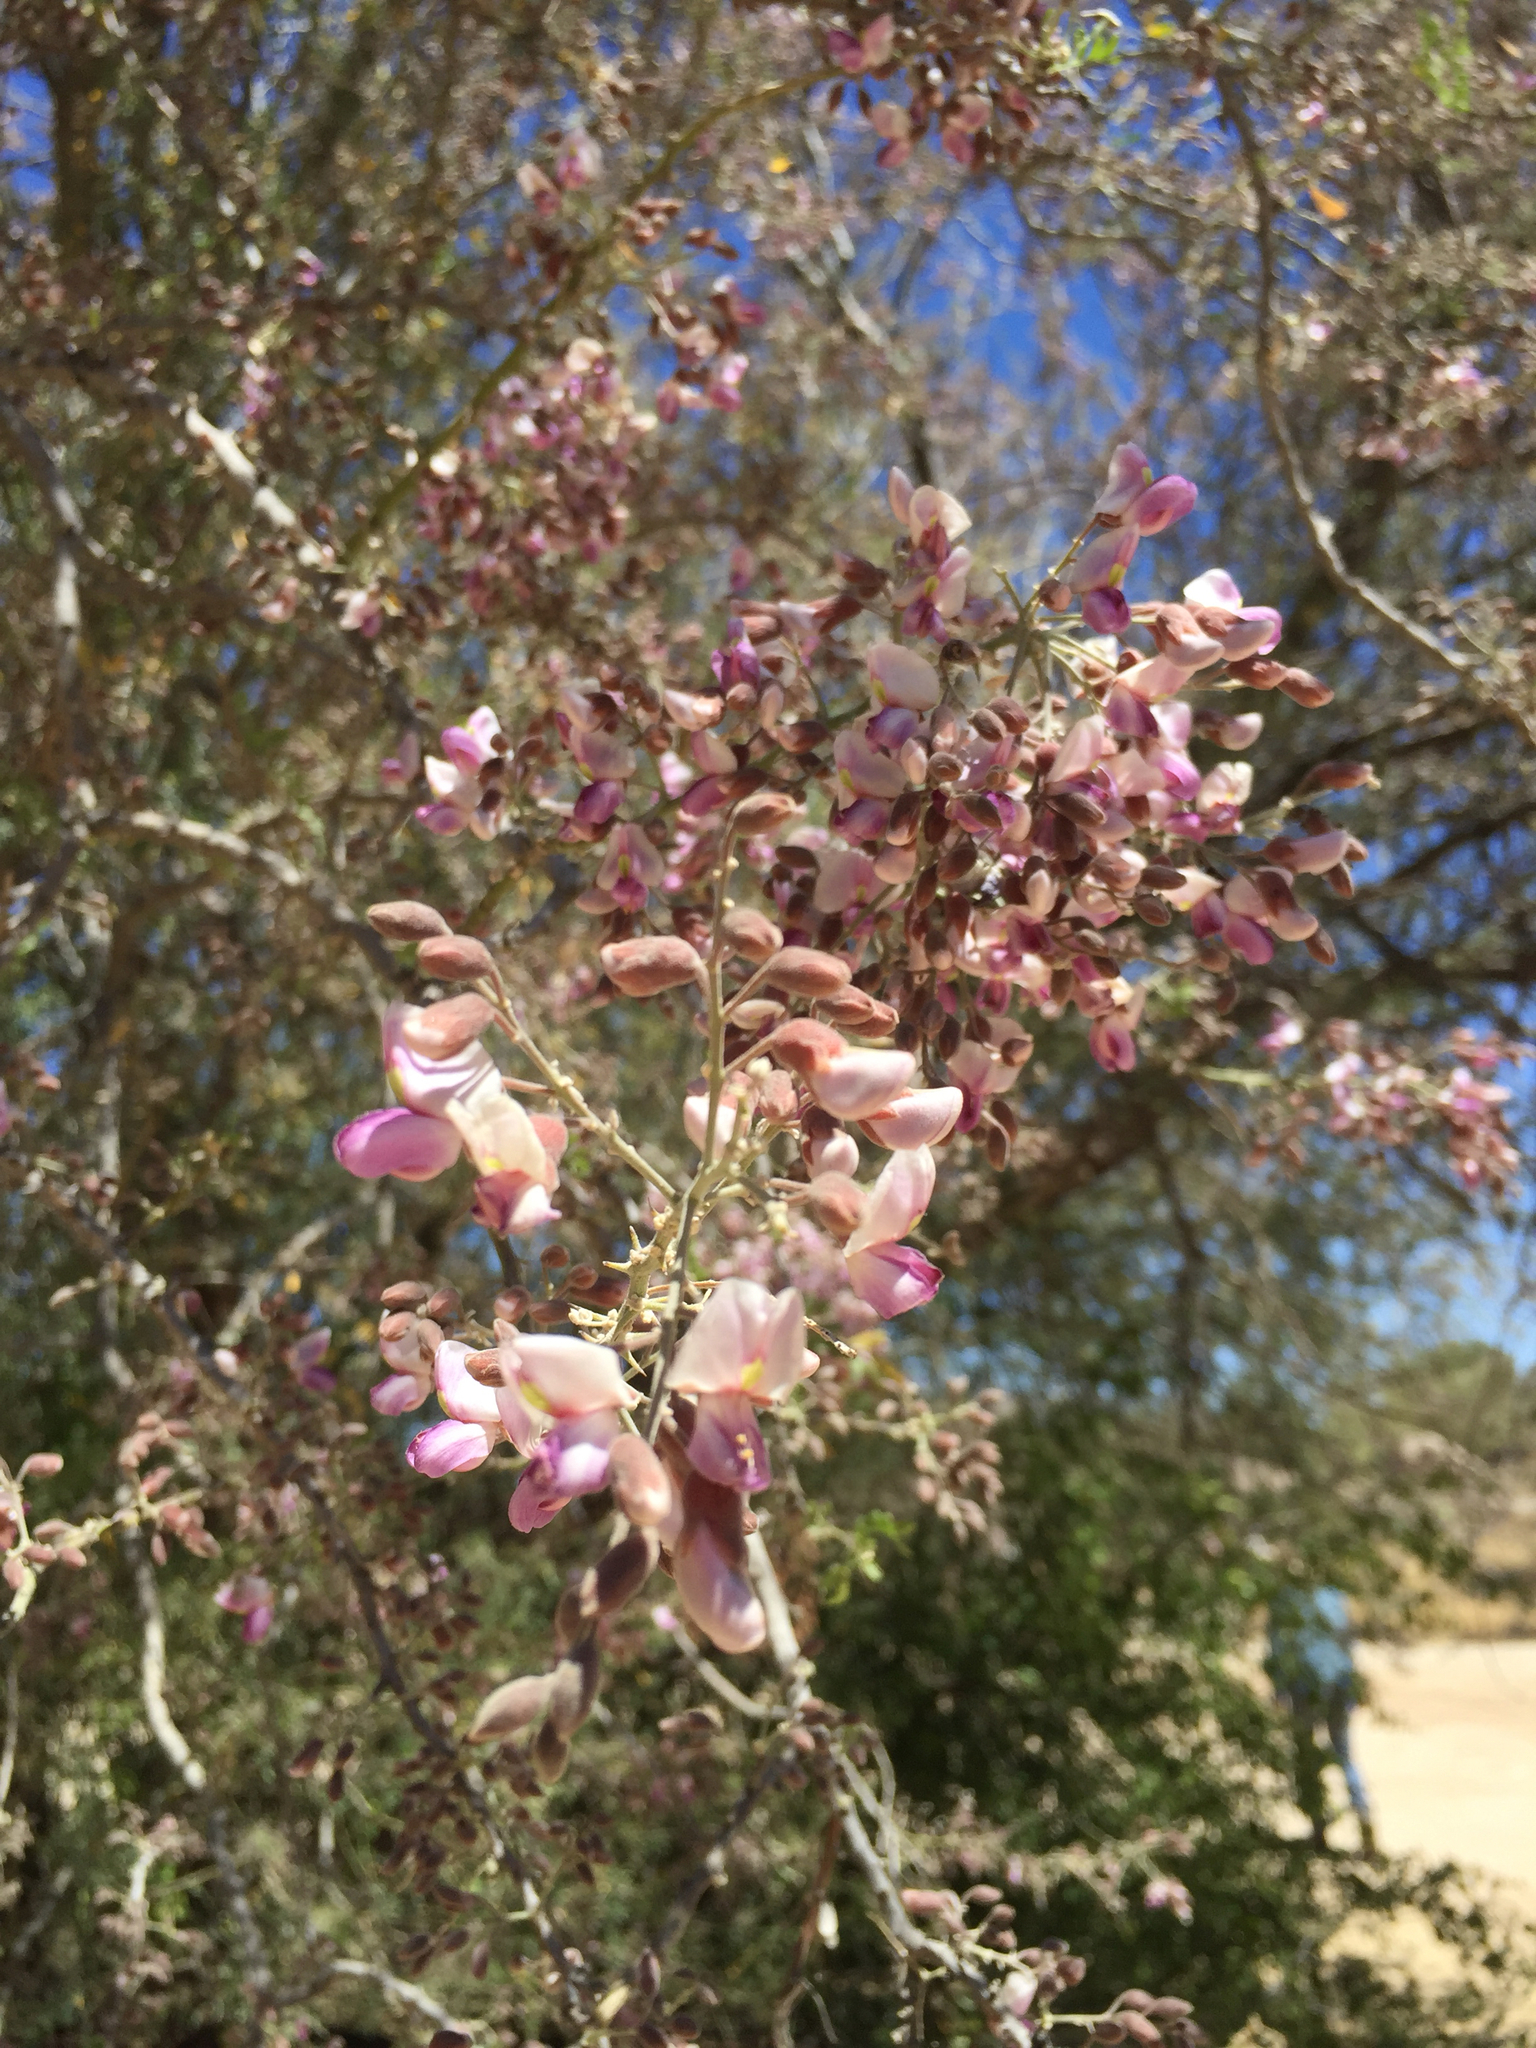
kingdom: Plantae
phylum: Tracheophyta
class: Magnoliopsida
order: Fabales
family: Fabaceae
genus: Olneya
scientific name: Olneya tesota
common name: Desert ironwood
